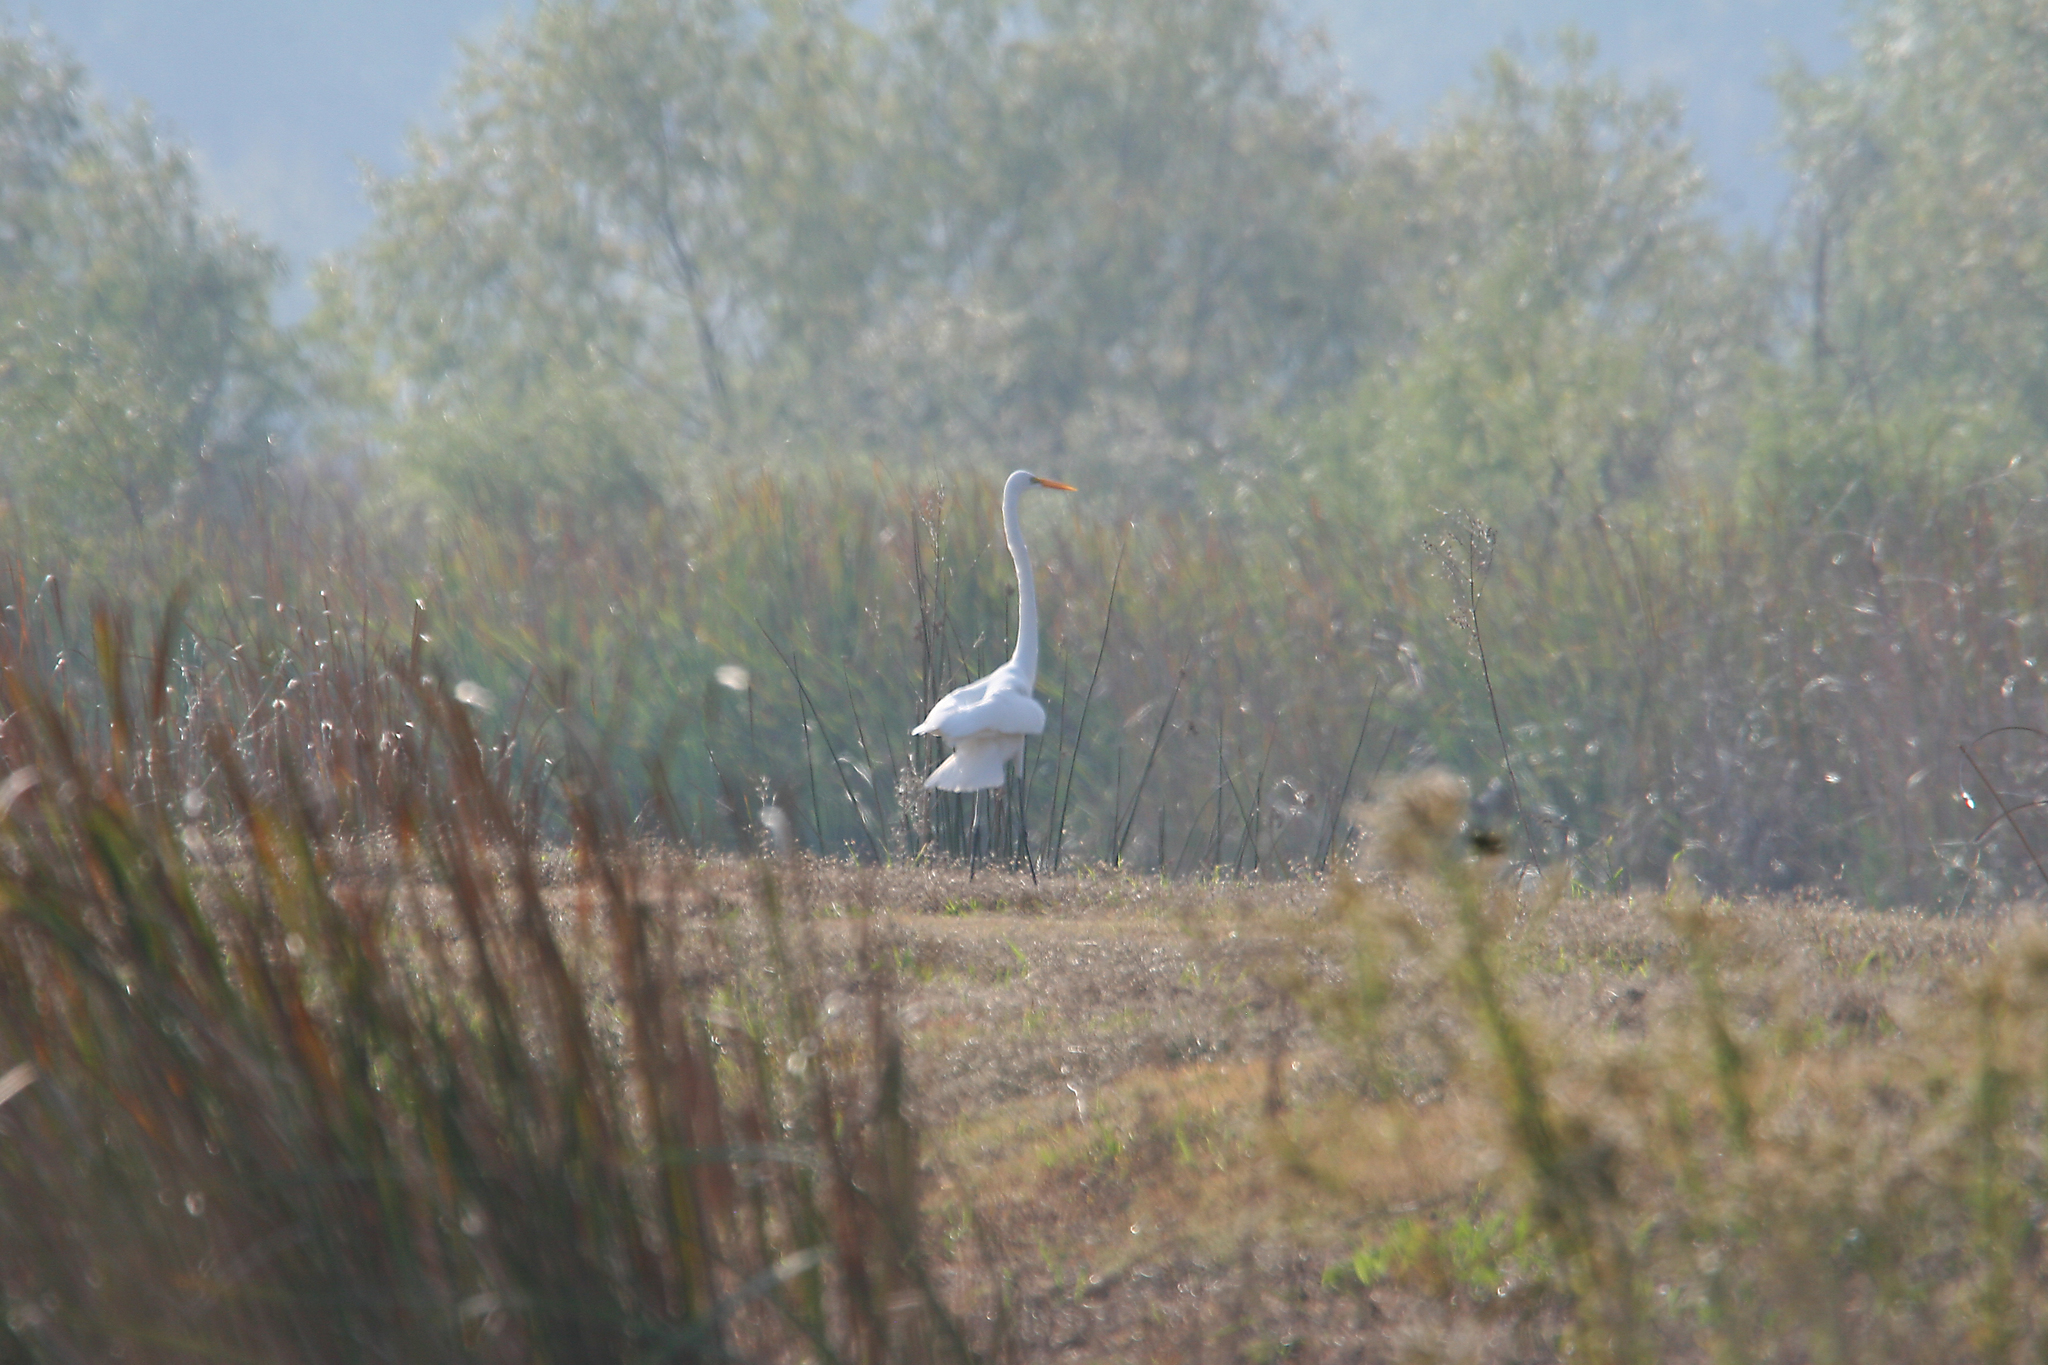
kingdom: Animalia
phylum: Chordata
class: Aves
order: Pelecaniformes
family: Ardeidae
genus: Ardea
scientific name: Ardea alba
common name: Great egret
